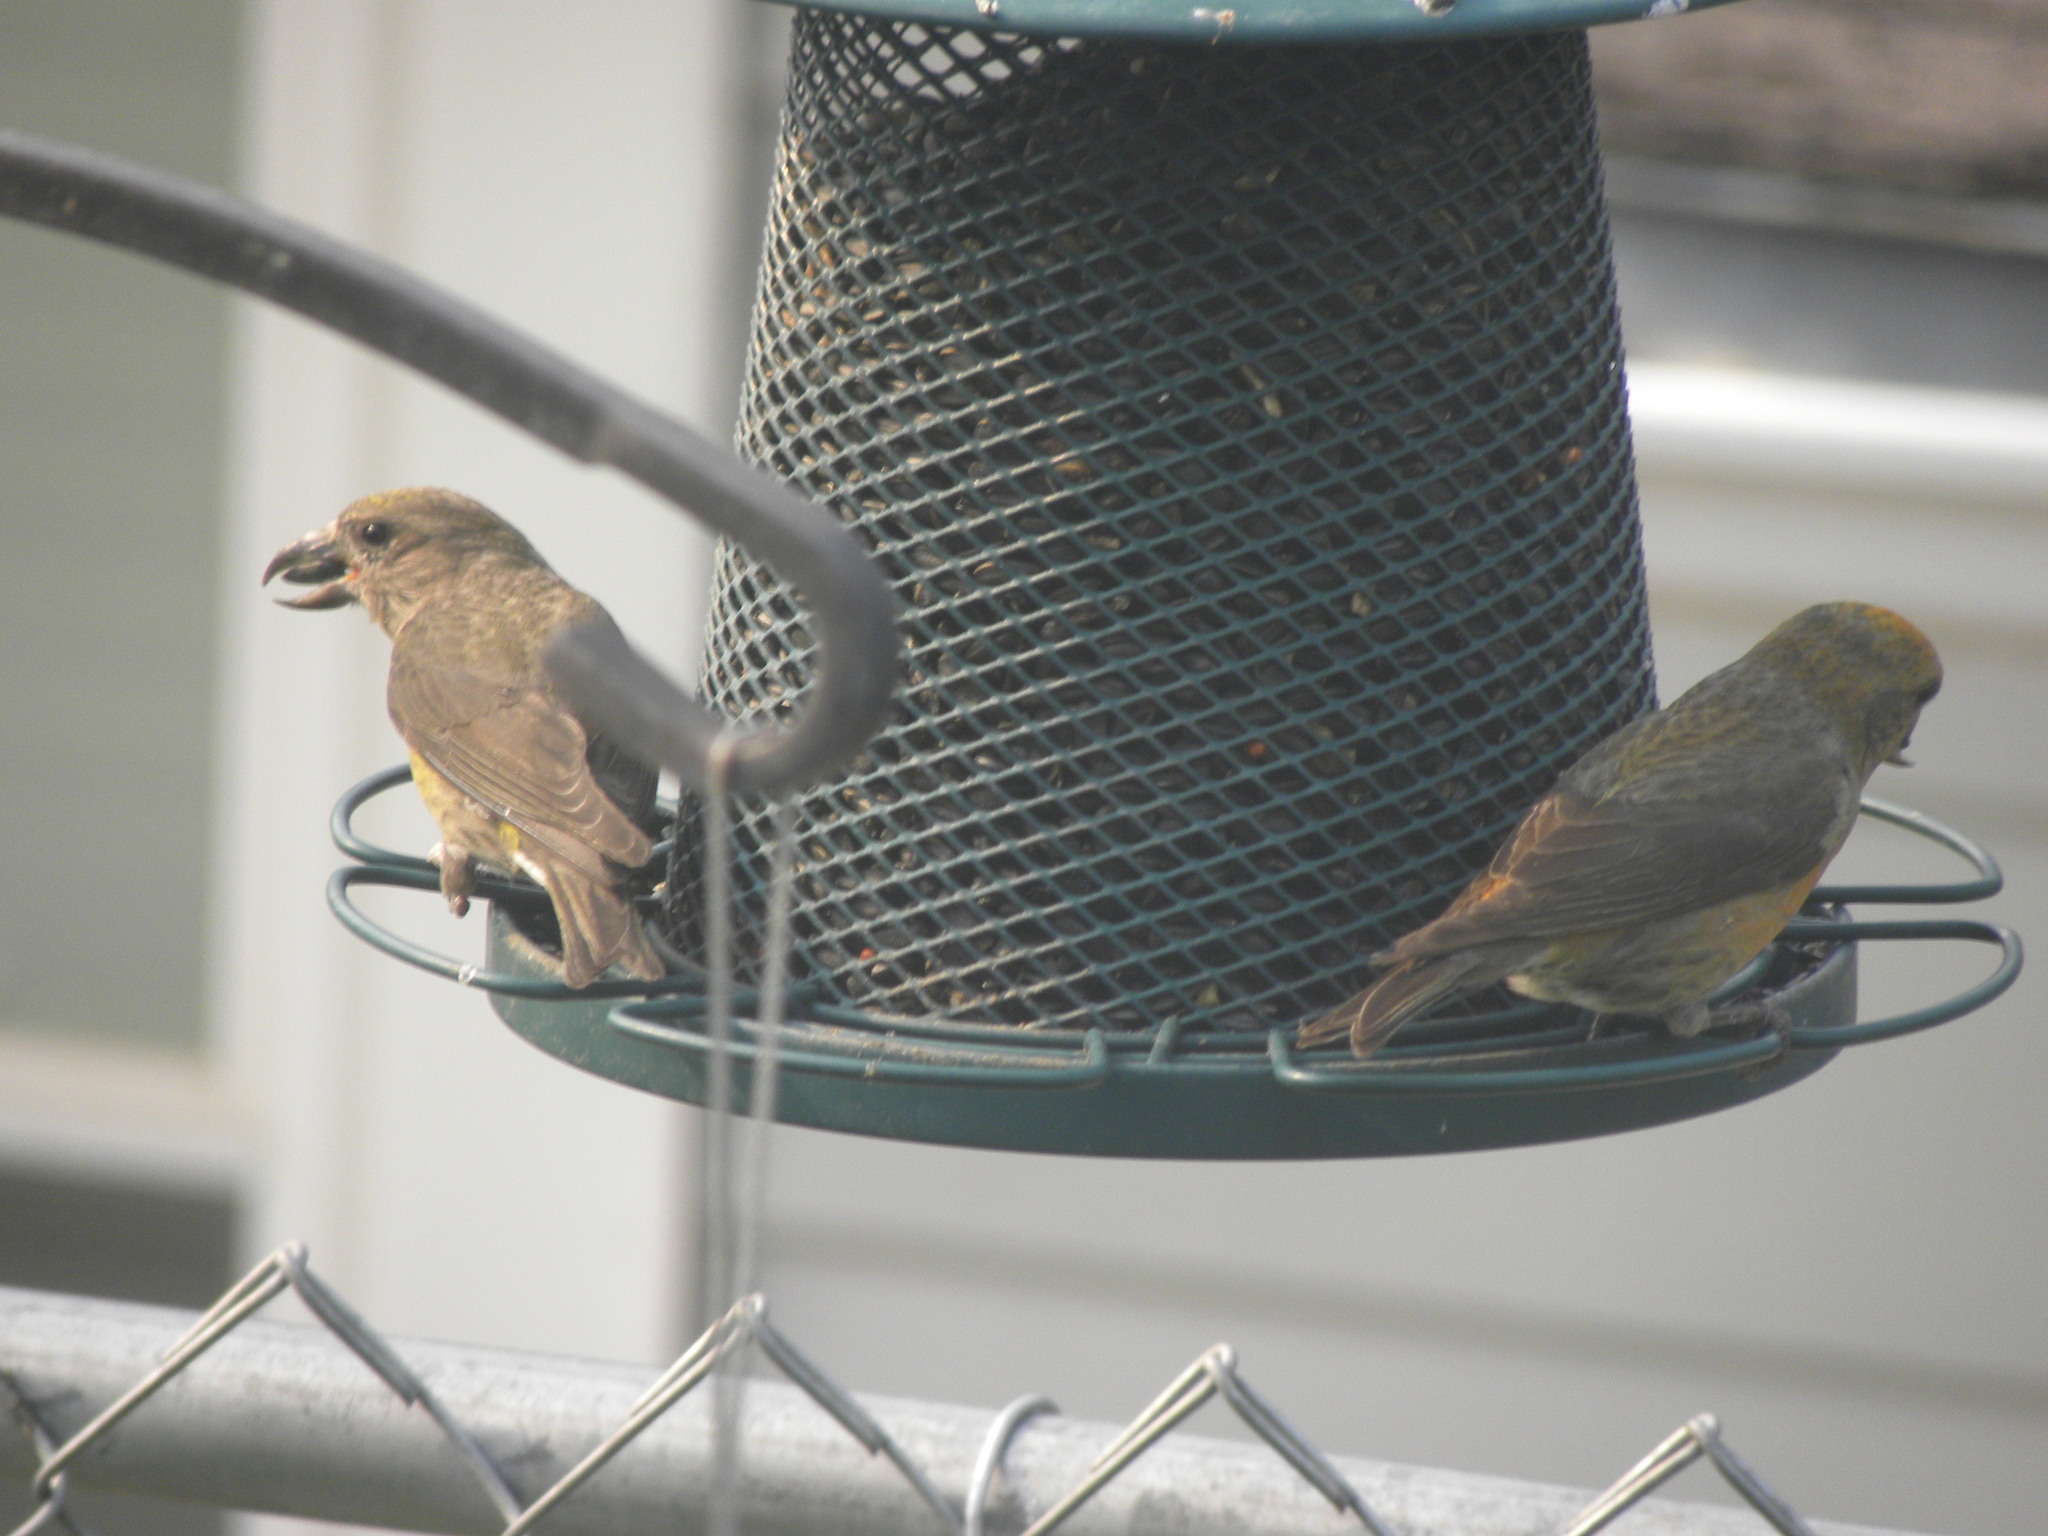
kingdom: Animalia
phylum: Chordata
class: Aves
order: Passeriformes
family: Fringillidae
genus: Loxia
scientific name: Loxia curvirostra
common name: Red crossbill
